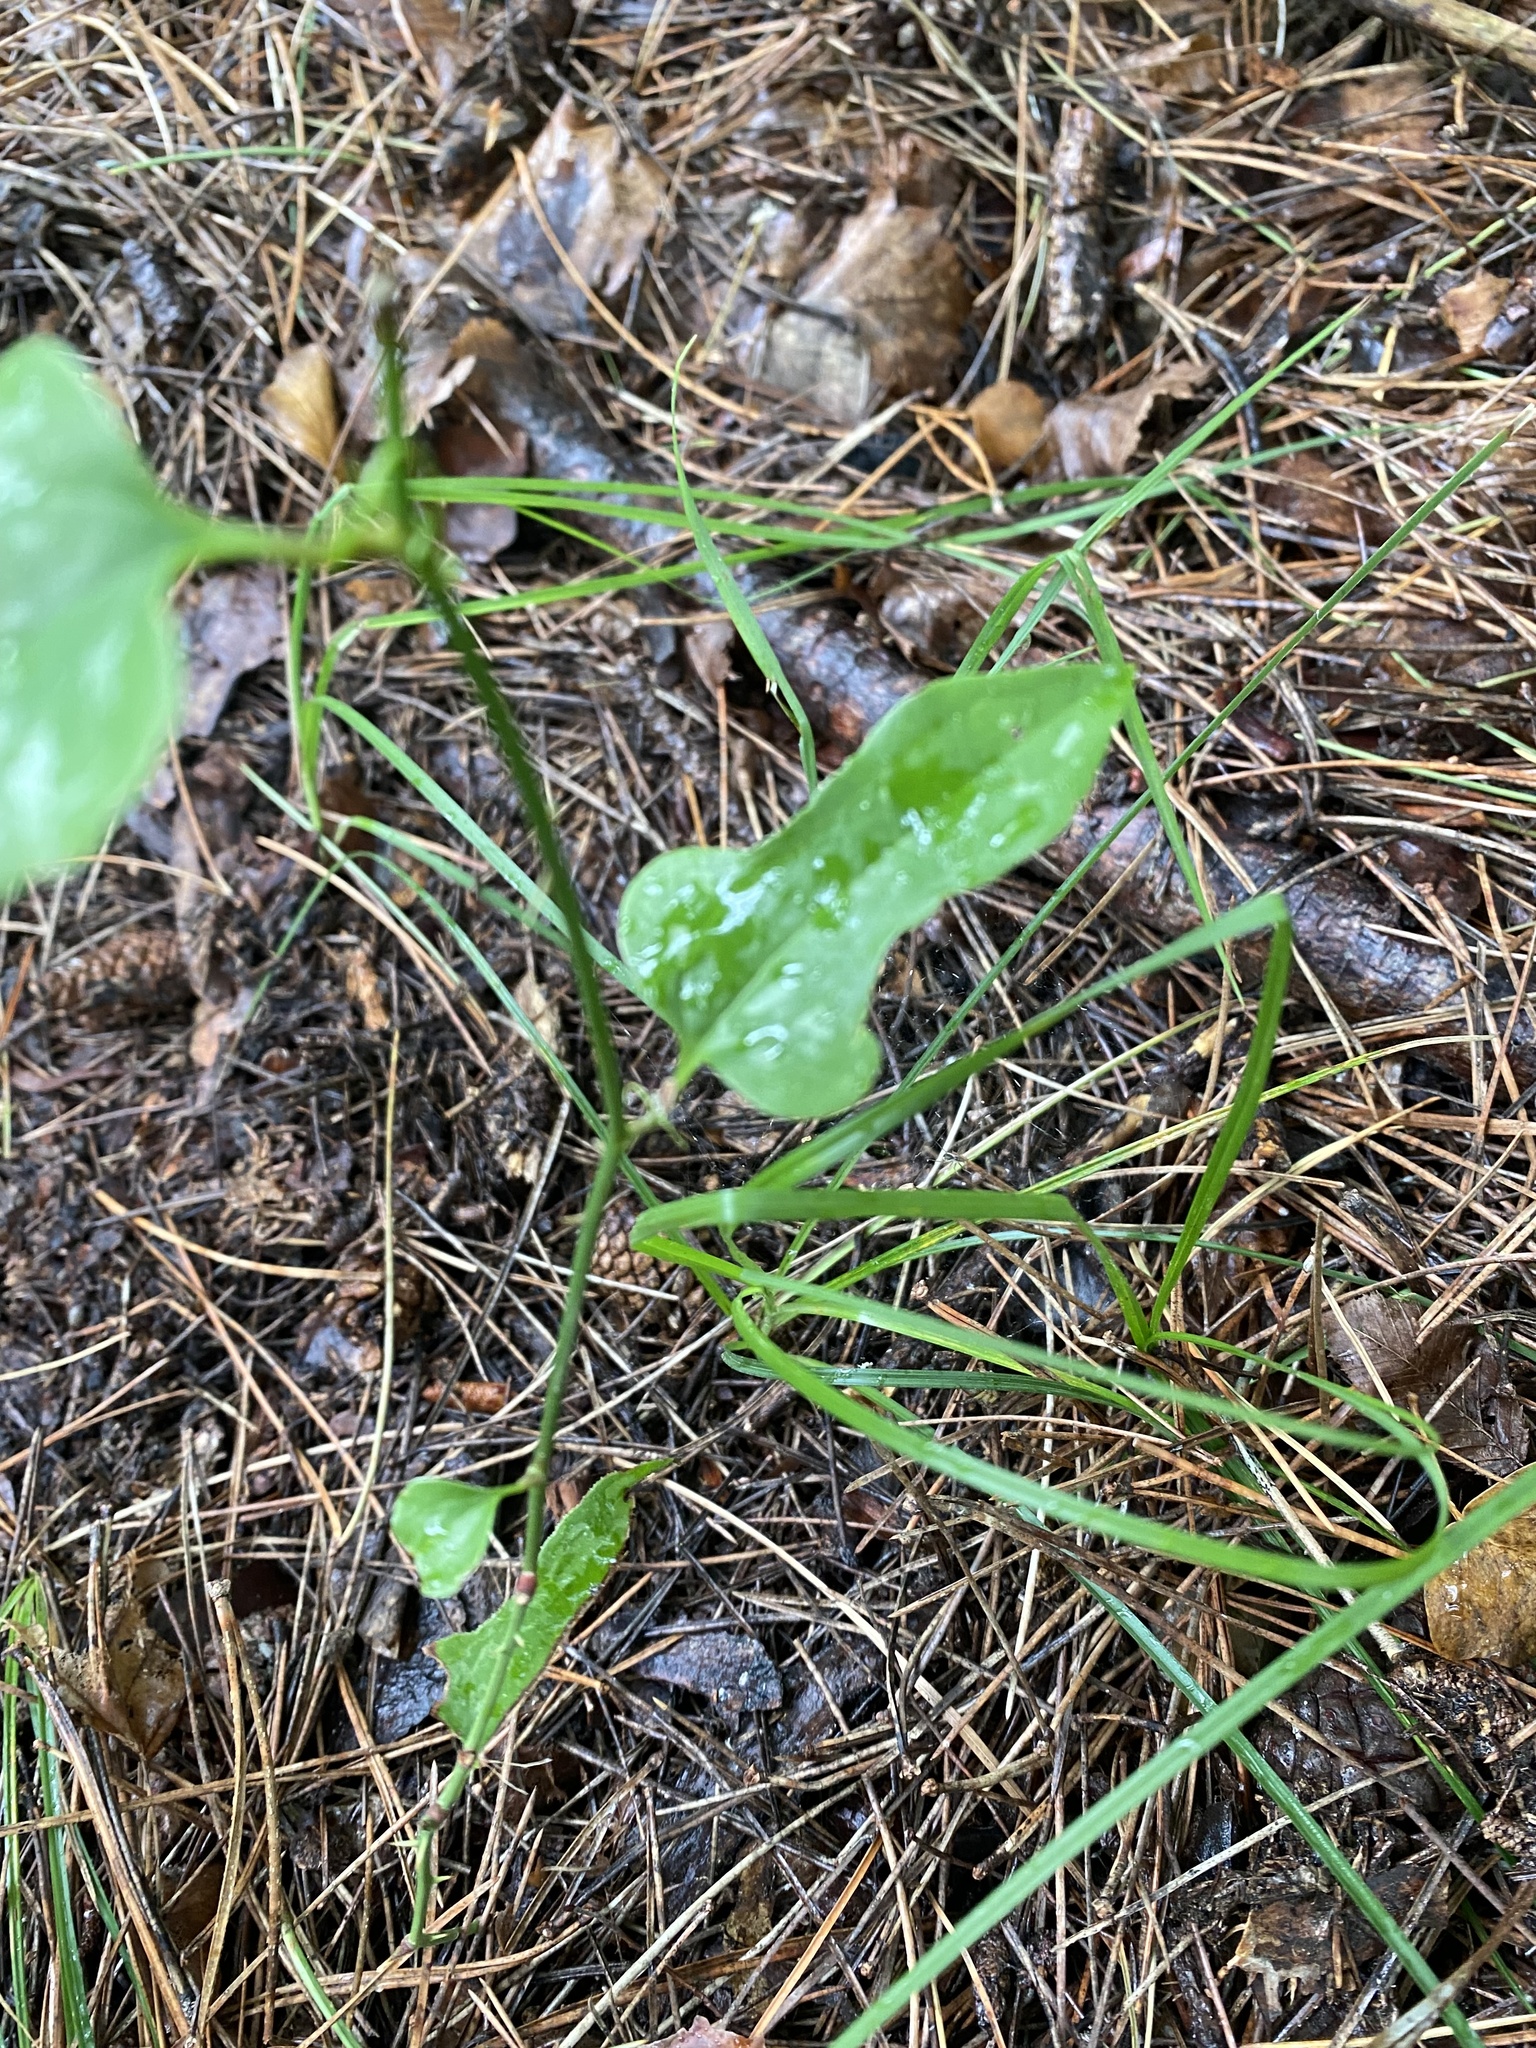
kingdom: Plantae
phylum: Tracheophyta
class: Liliopsida
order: Liliales
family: Smilacaceae
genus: Smilax
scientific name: Smilax excelsa
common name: Larger smilax
